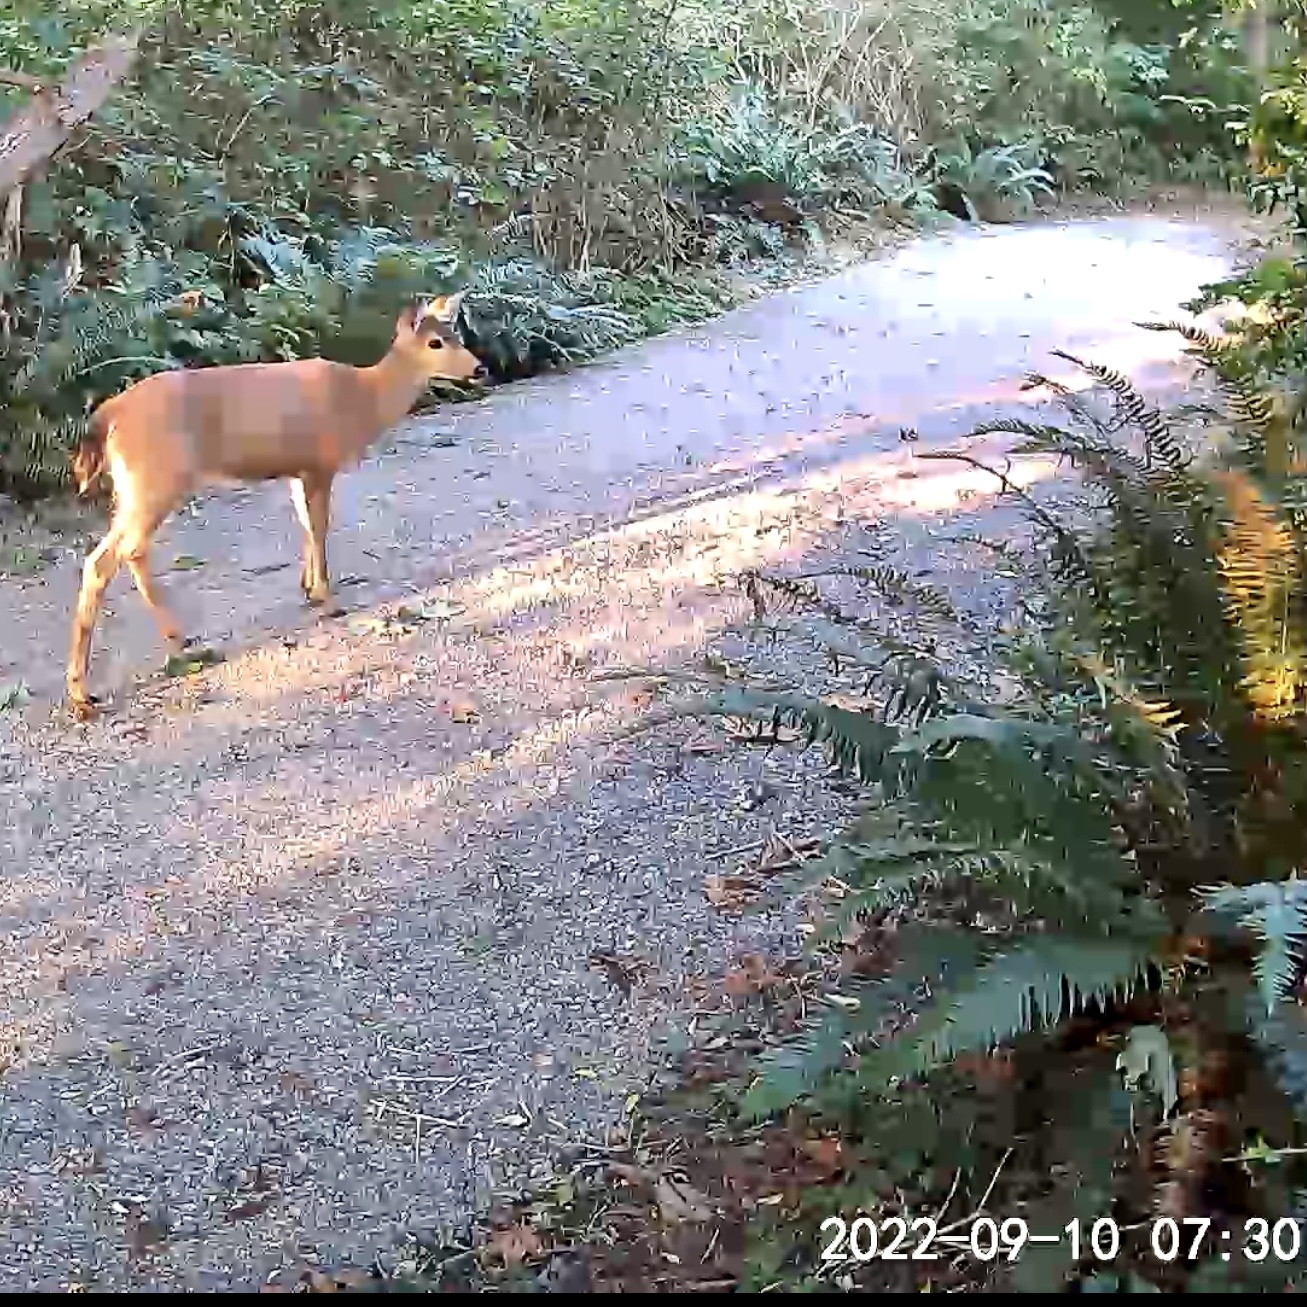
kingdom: Animalia
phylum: Chordata
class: Mammalia
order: Artiodactyla
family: Cervidae
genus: Odocoileus
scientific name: Odocoileus hemionus
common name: Mule deer
